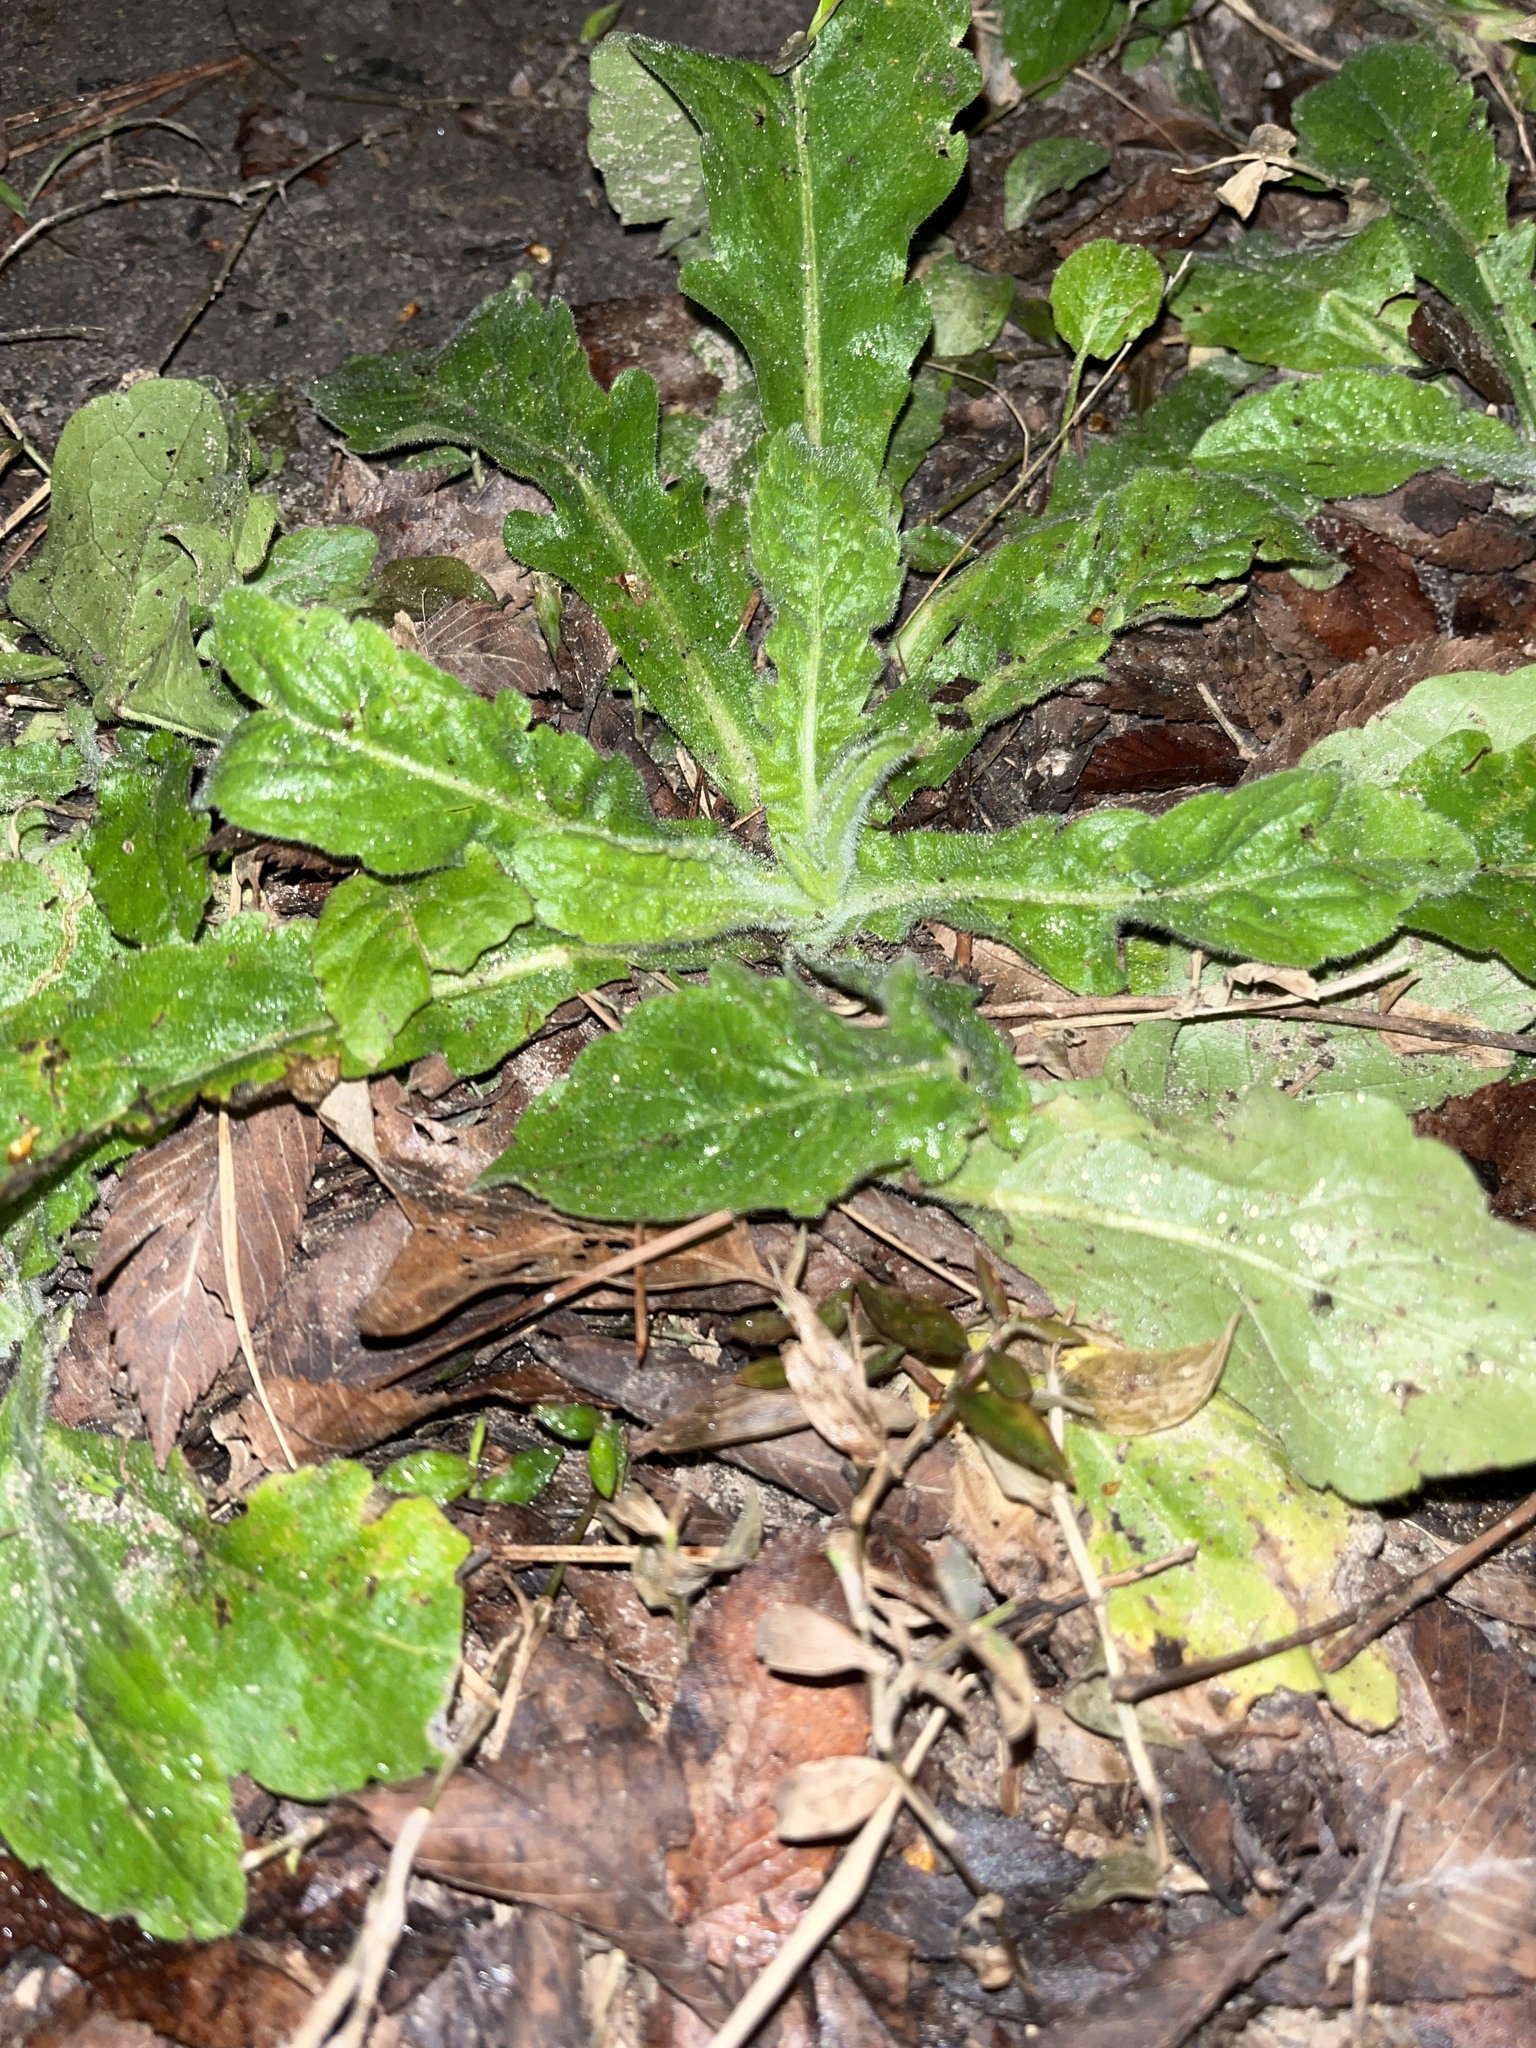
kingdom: Plantae
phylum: Tracheophyta
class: Magnoliopsida
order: Asterales
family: Asteraceae
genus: Erigeron
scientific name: Erigeron philadelphicus
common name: Robin's-plantain
